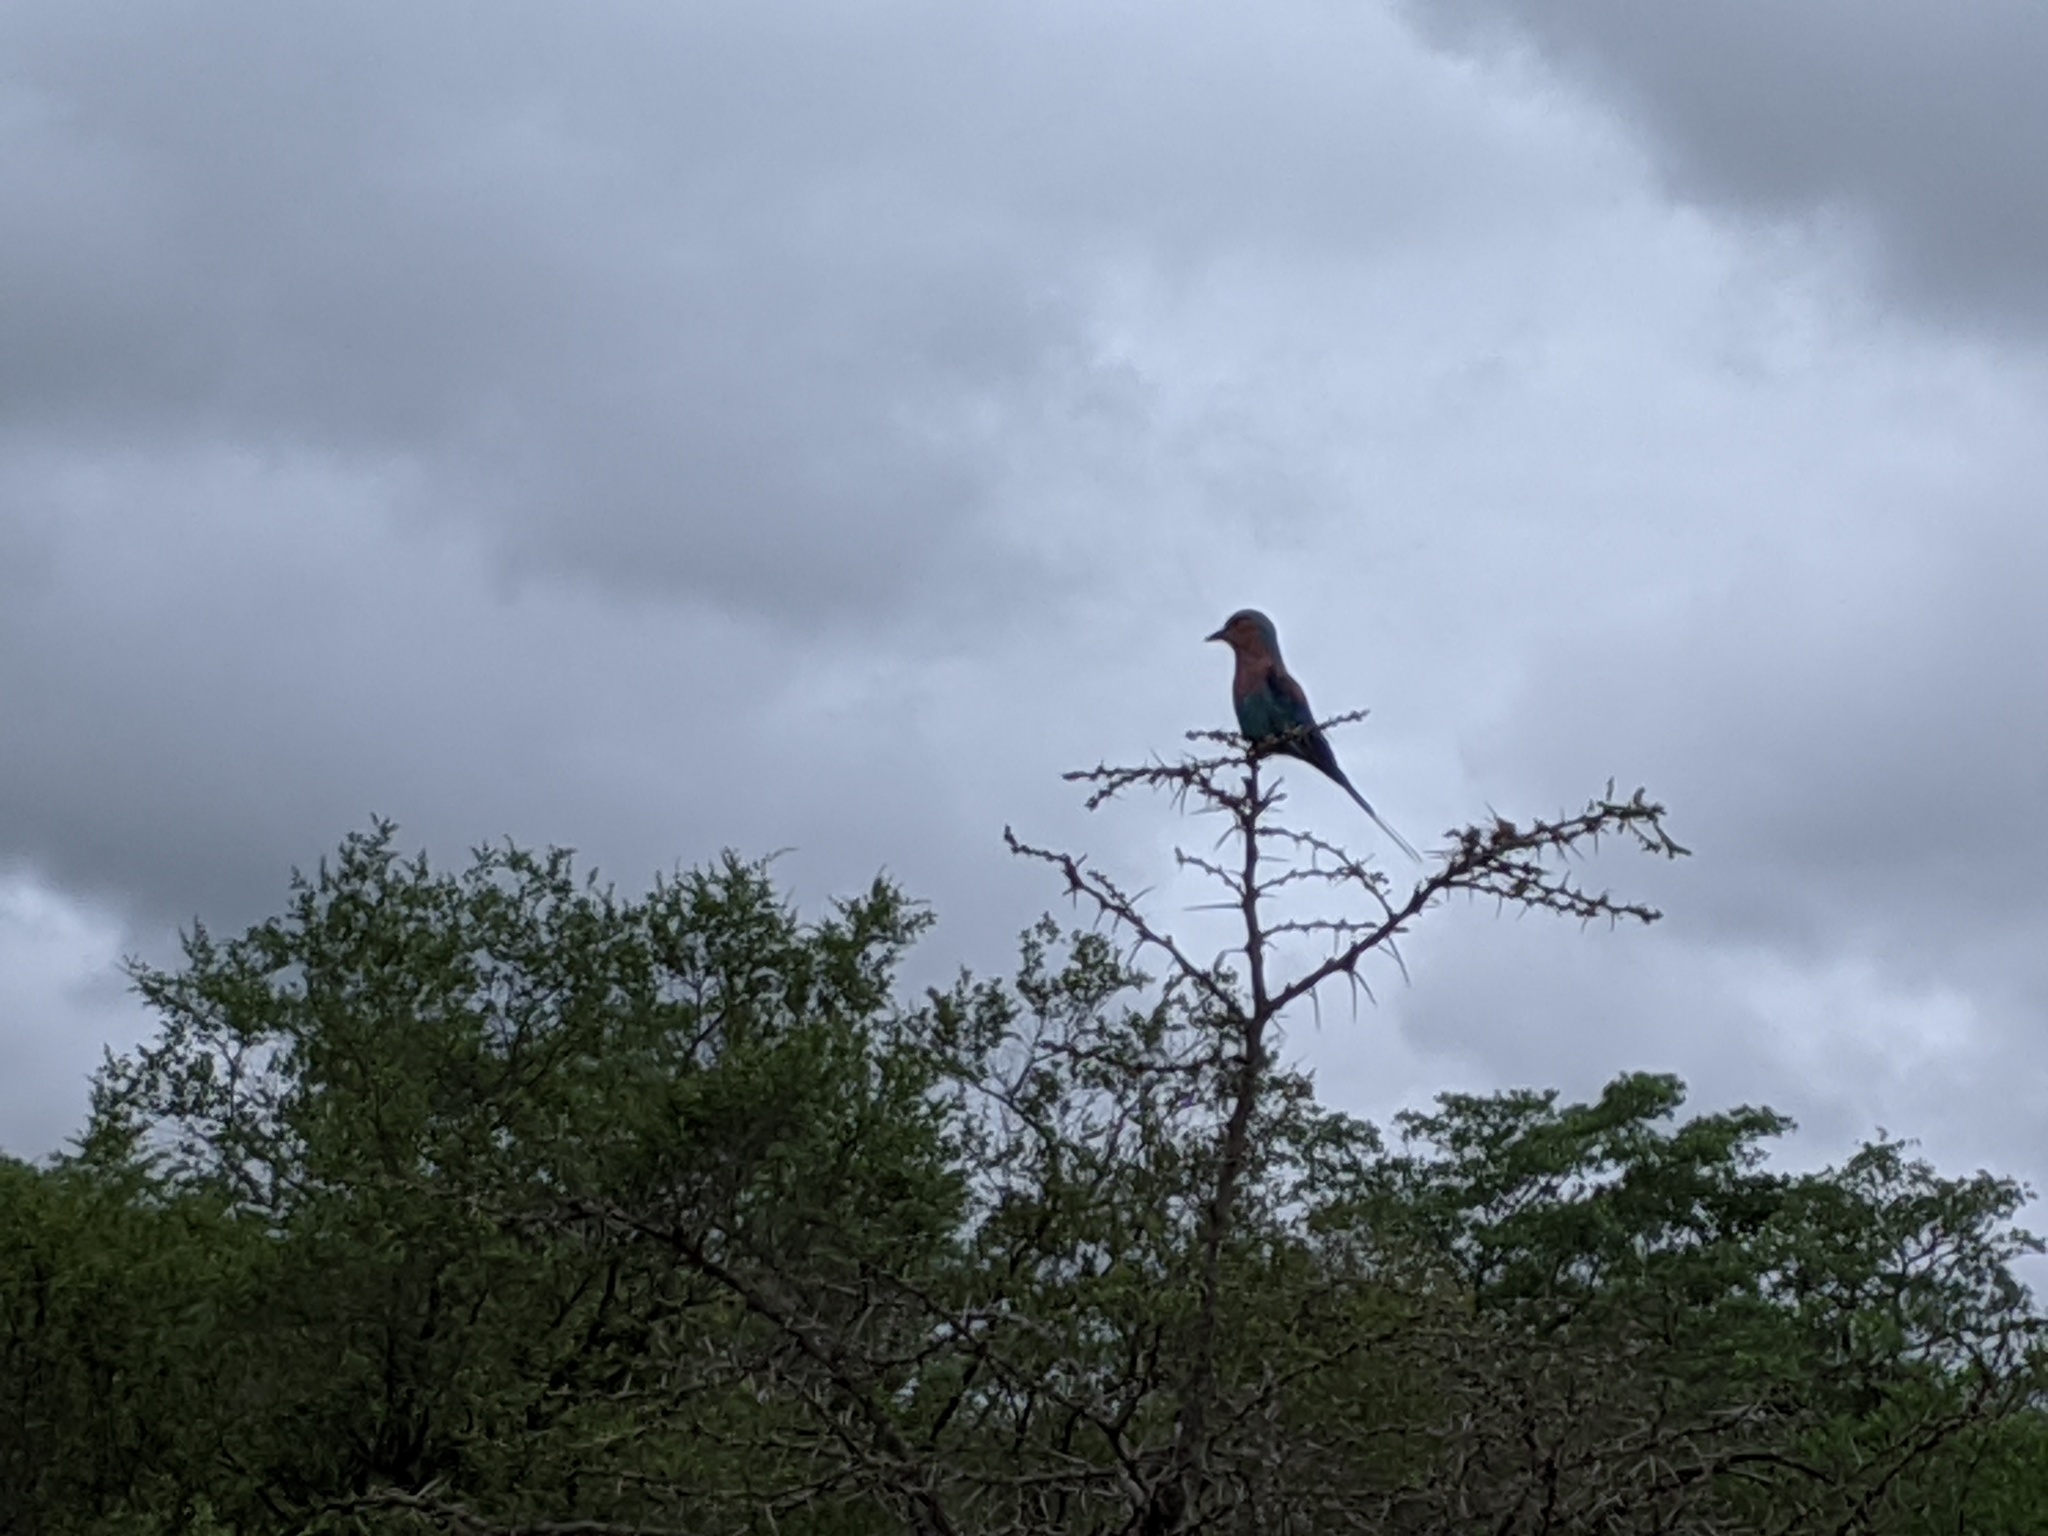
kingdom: Animalia
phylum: Chordata
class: Aves
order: Coraciiformes
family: Coraciidae
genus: Coracias
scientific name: Coracias caudatus
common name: Lilac-breasted roller
